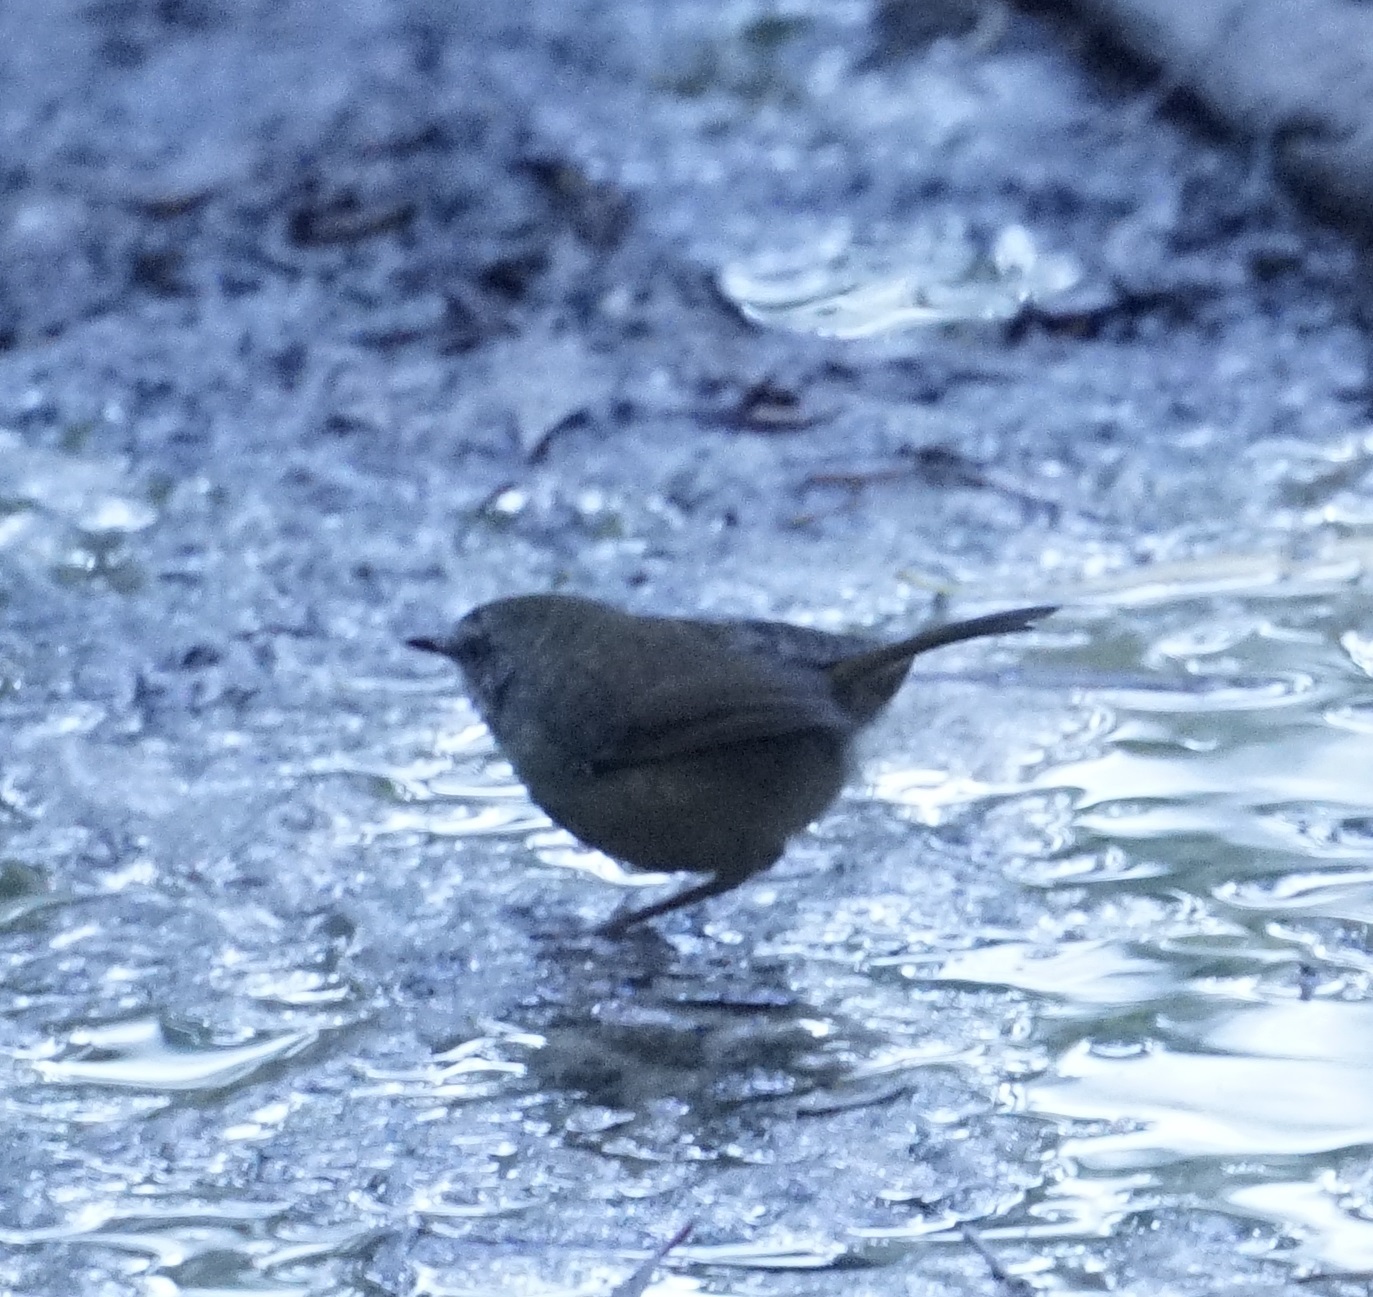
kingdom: Animalia
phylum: Chordata
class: Aves
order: Passeriformes
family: Acanthizidae
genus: Sericornis
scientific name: Sericornis frontalis
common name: White-browed scrubwren
